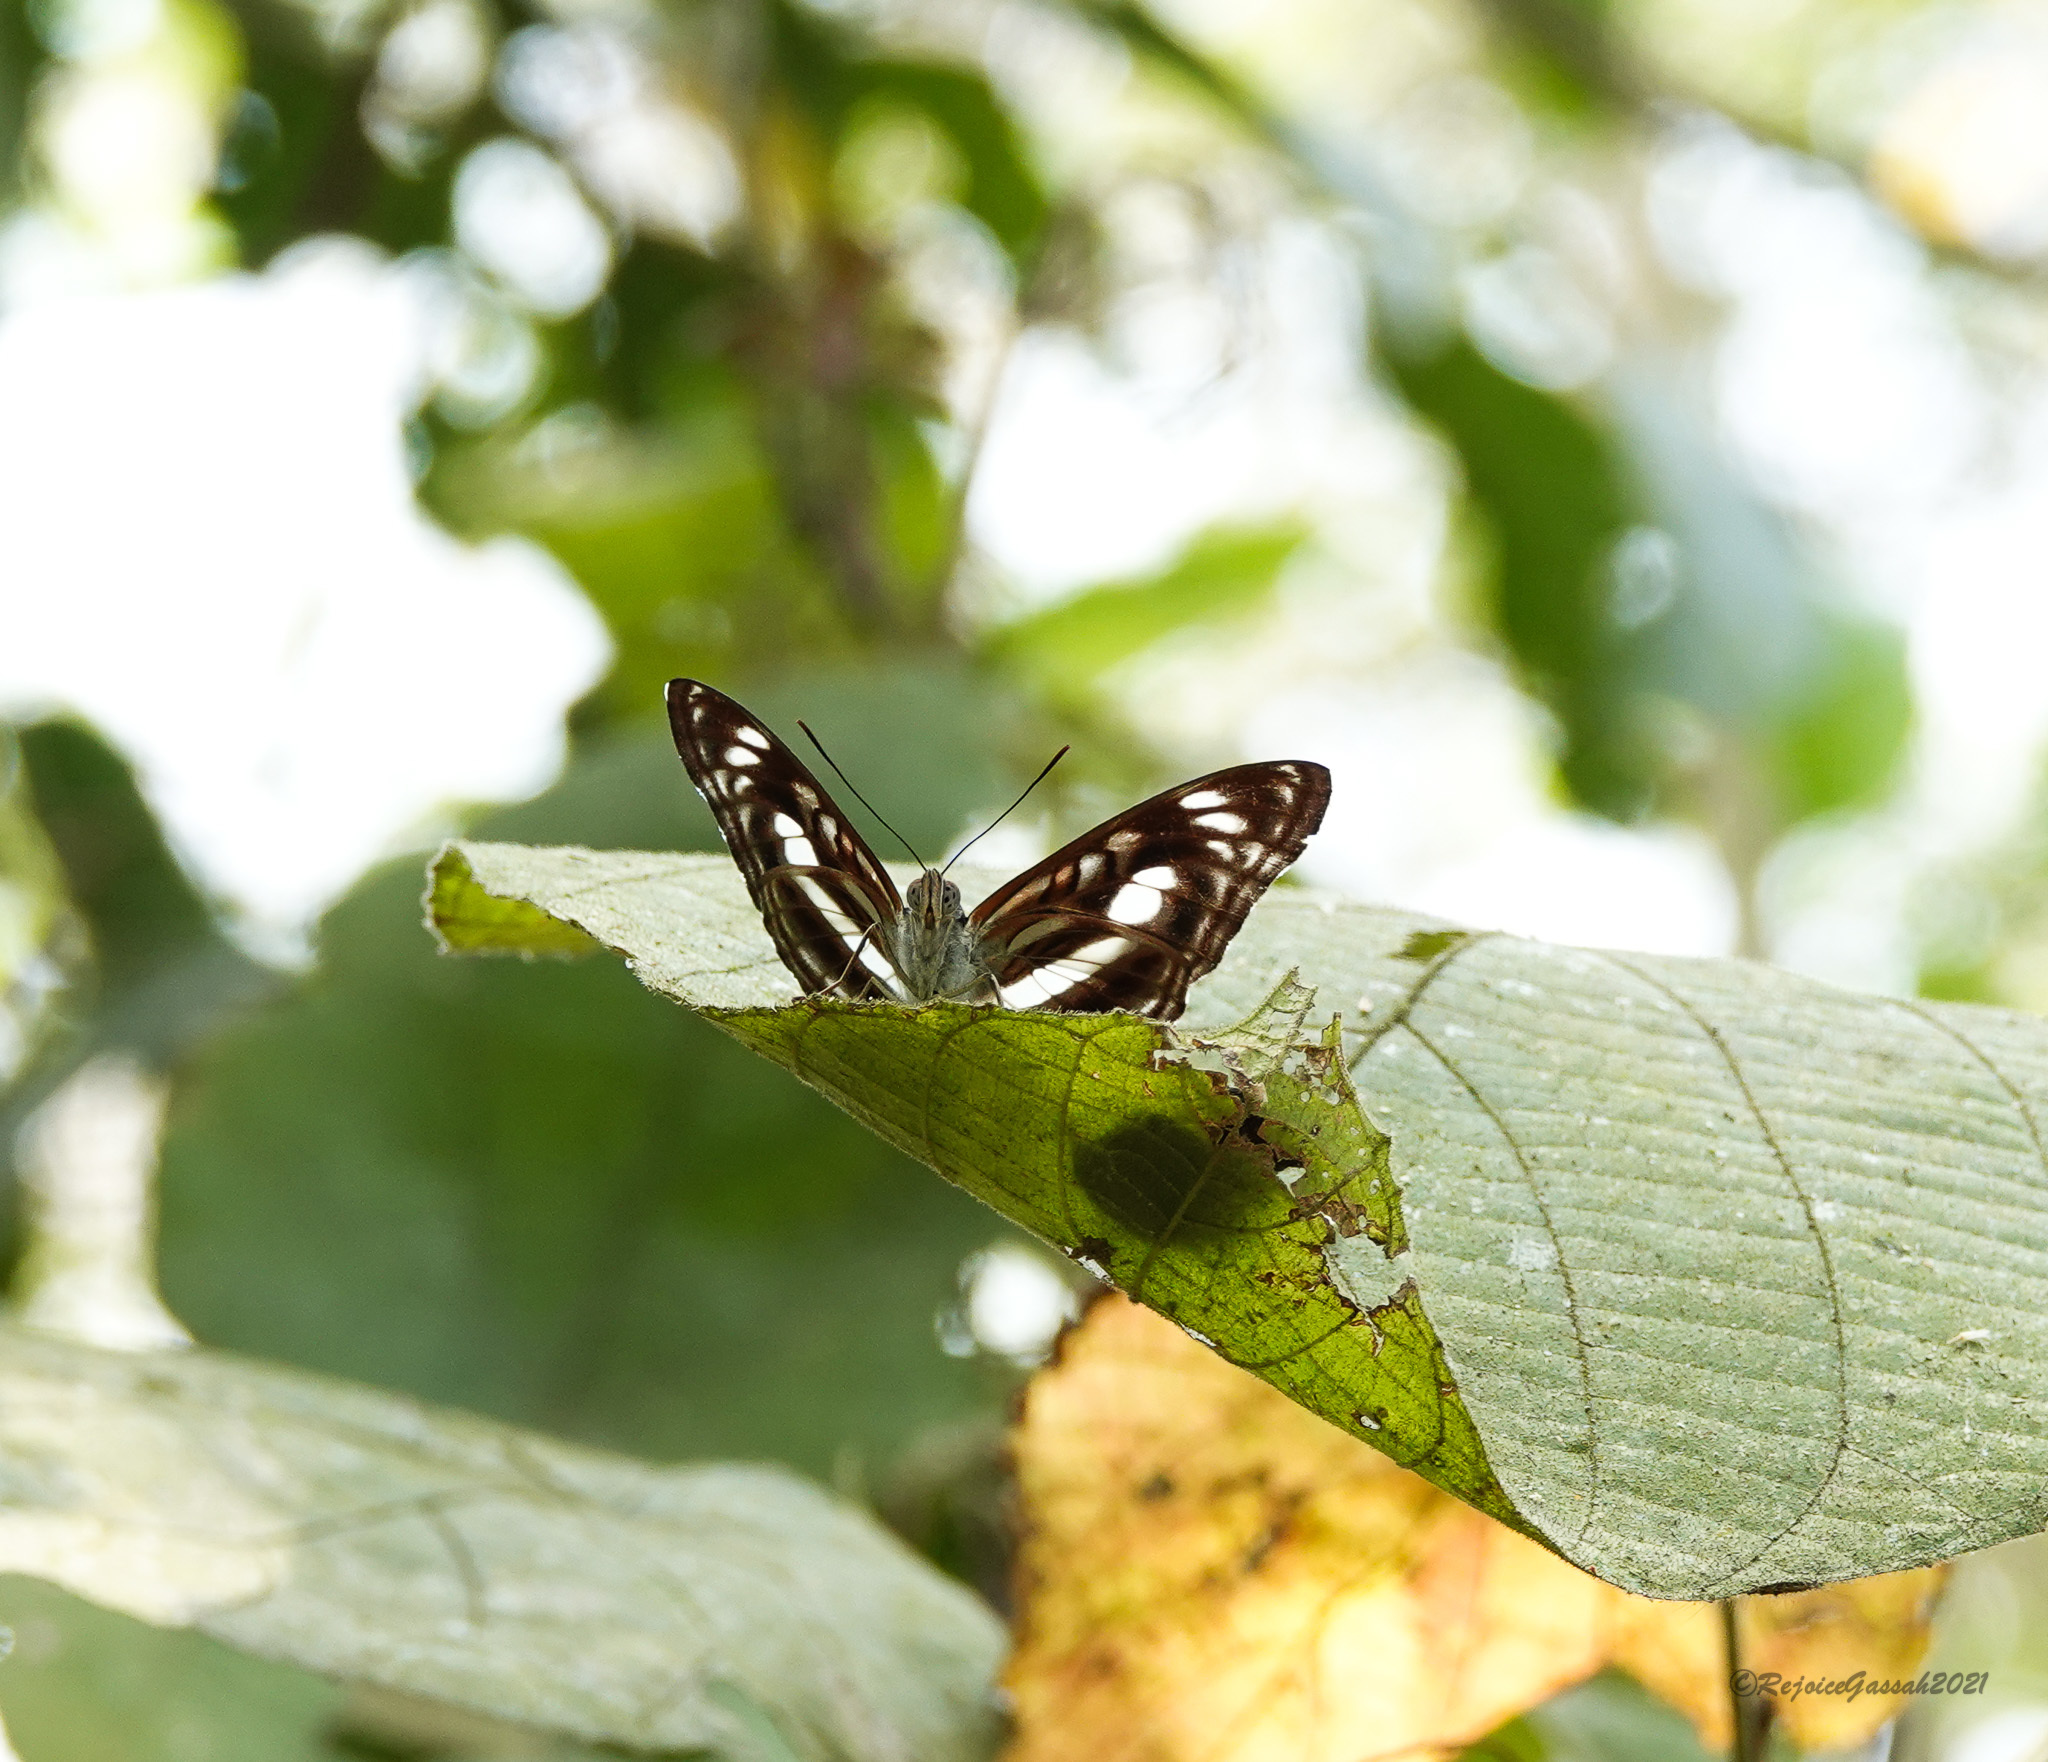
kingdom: Animalia
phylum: Arthropoda
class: Insecta
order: Lepidoptera
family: Nymphalidae
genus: Parathyma
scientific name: Parathyma selenophora
